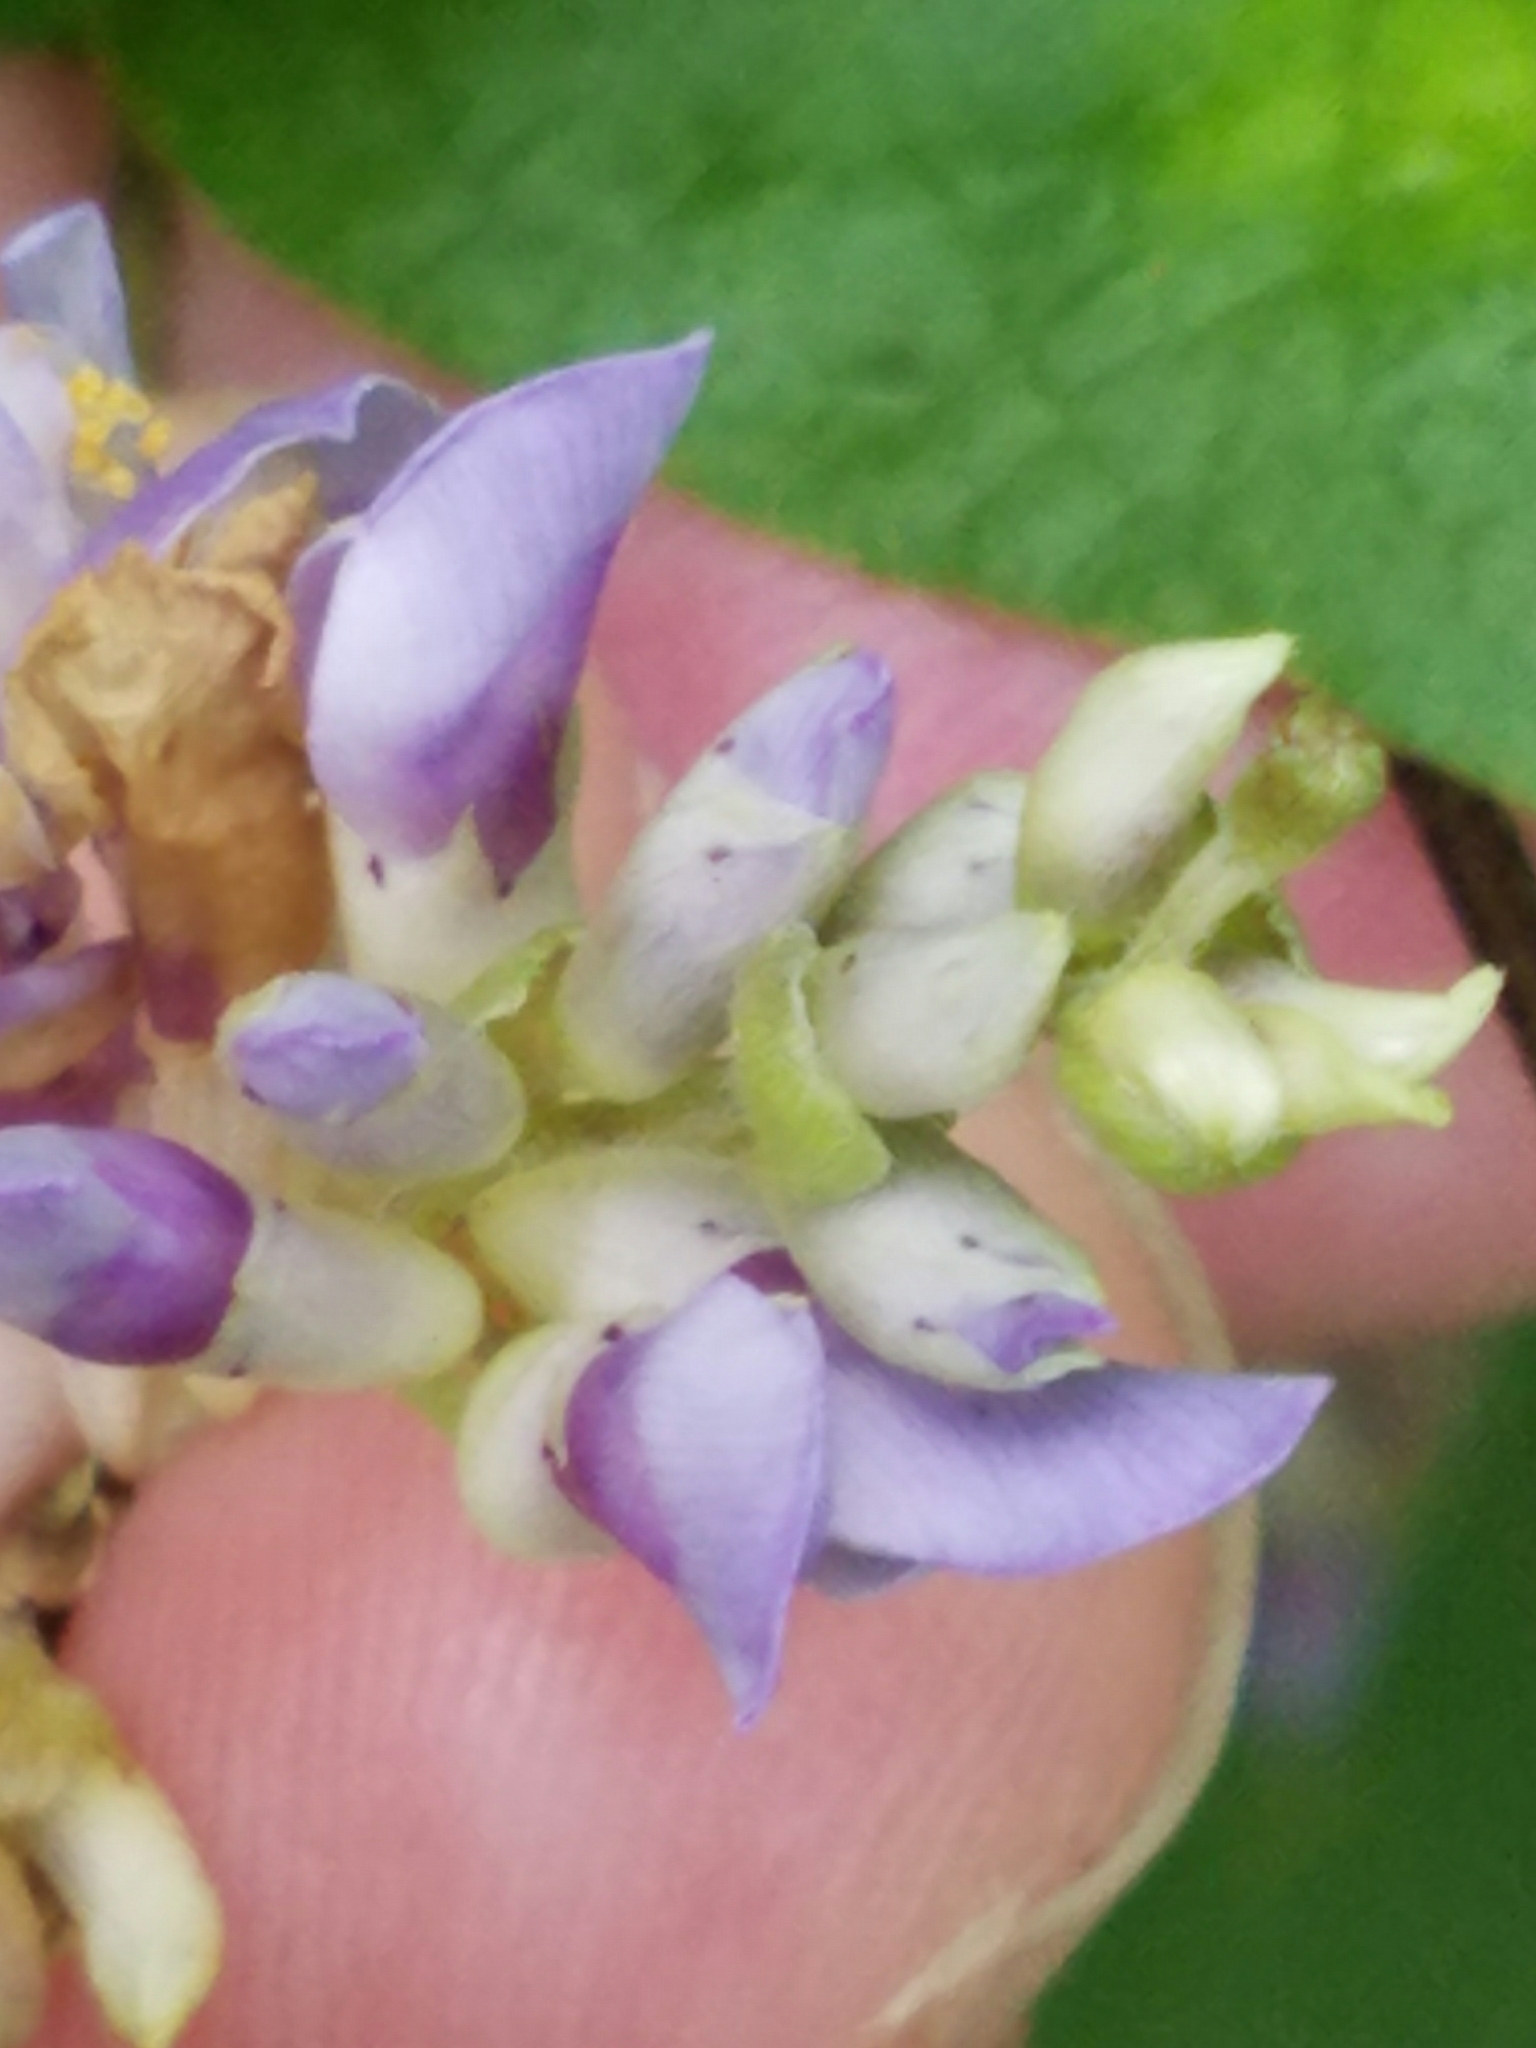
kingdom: Plantae
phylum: Tracheophyta
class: Magnoliopsida
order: Fabales
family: Fabaceae
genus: Amphicarpaea
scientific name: Amphicarpaea bracteata
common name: American hog peanut
